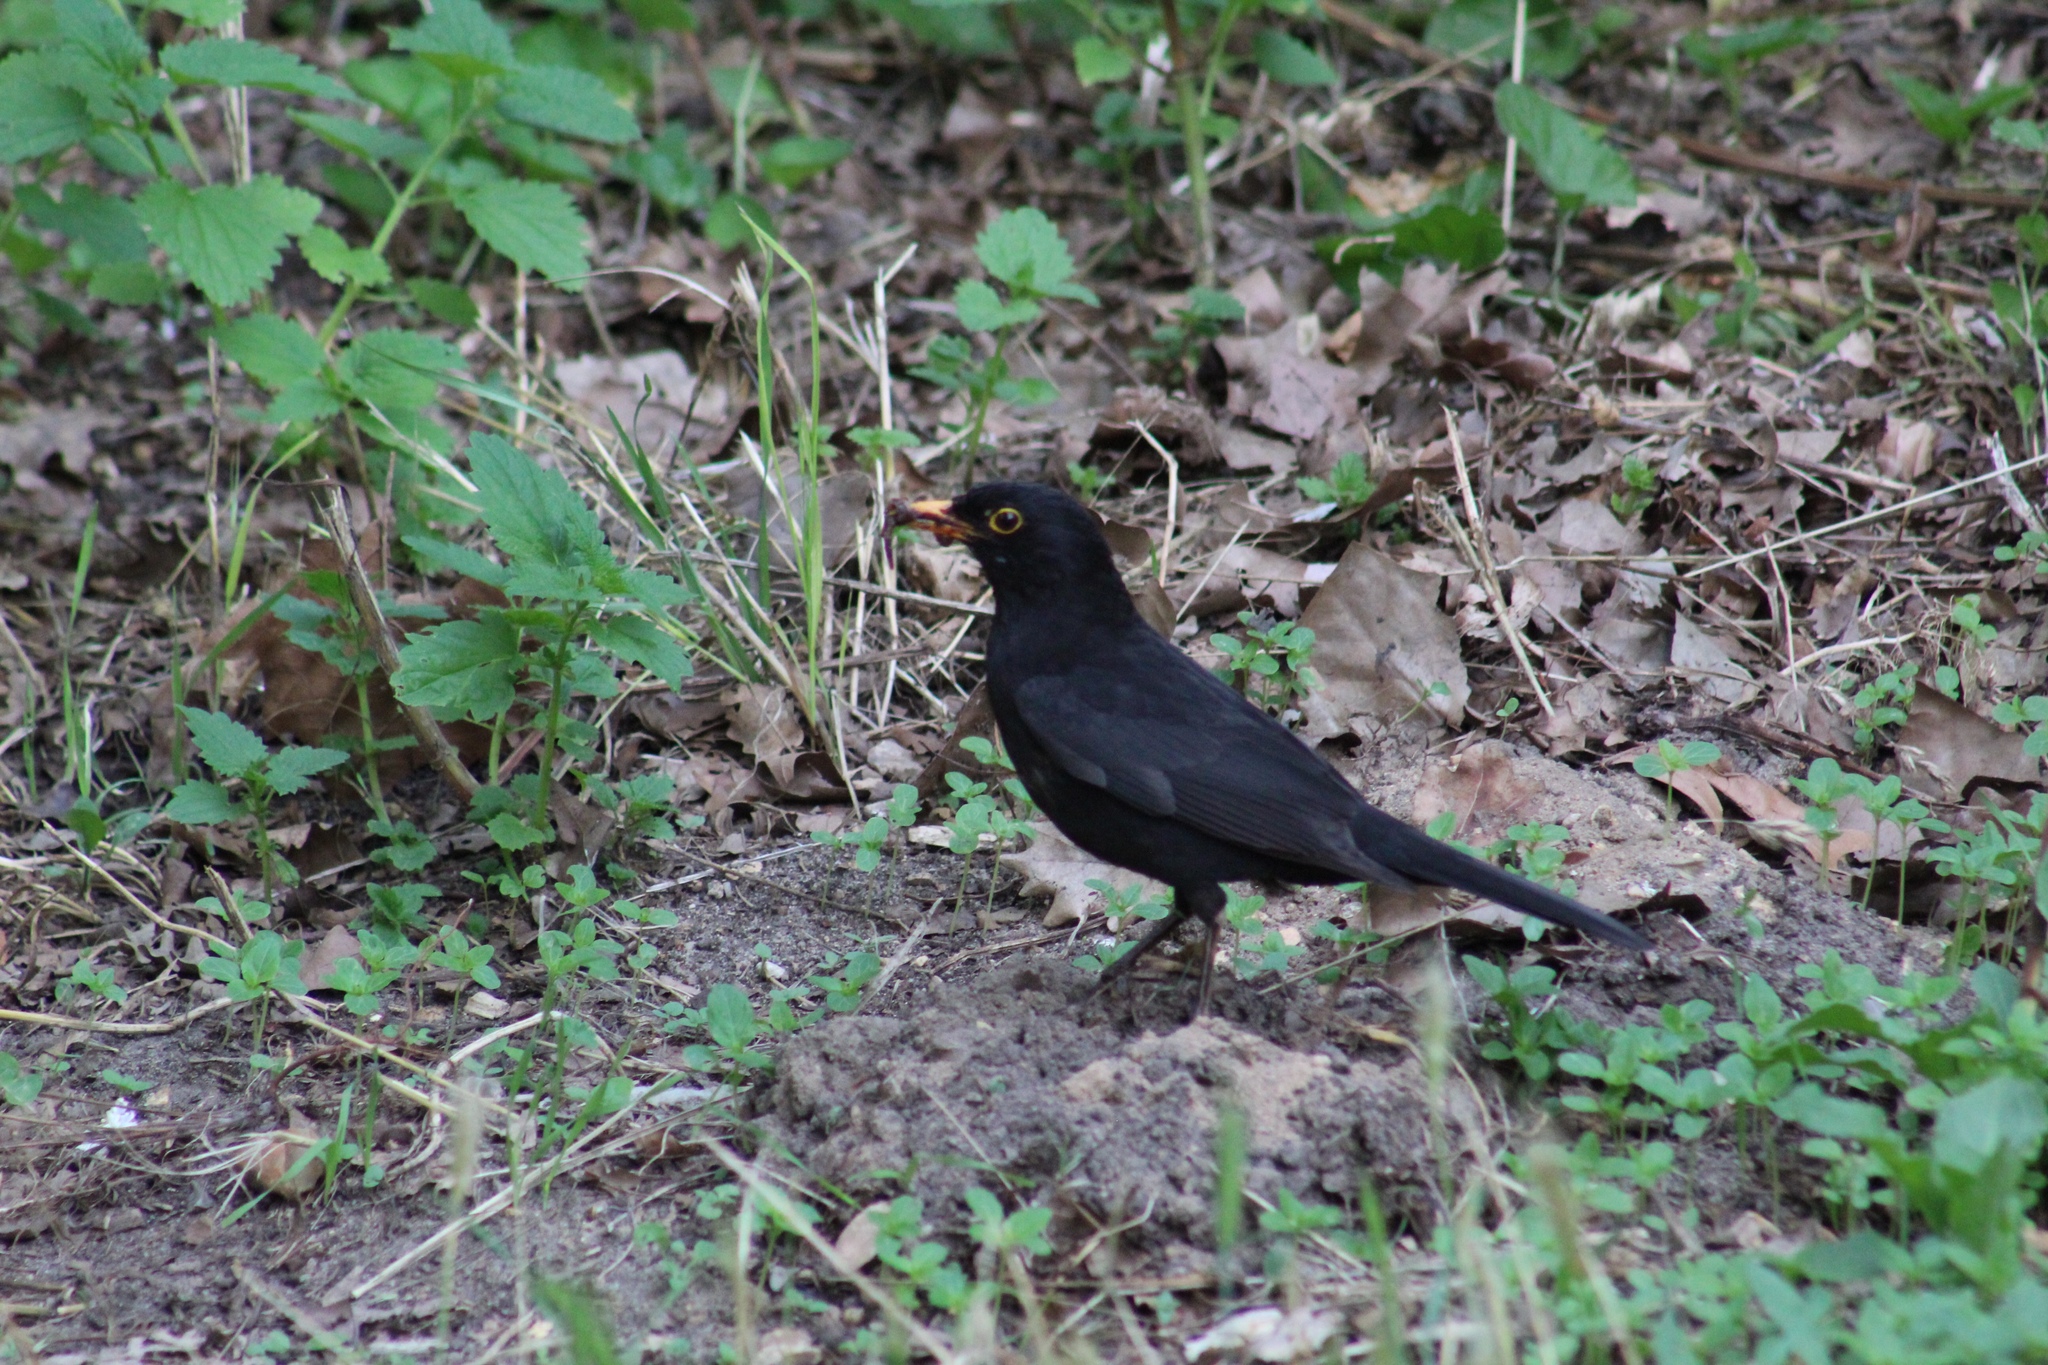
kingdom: Animalia
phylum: Chordata
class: Aves
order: Passeriformes
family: Turdidae
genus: Turdus
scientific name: Turdus merula
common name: Common blackbird
